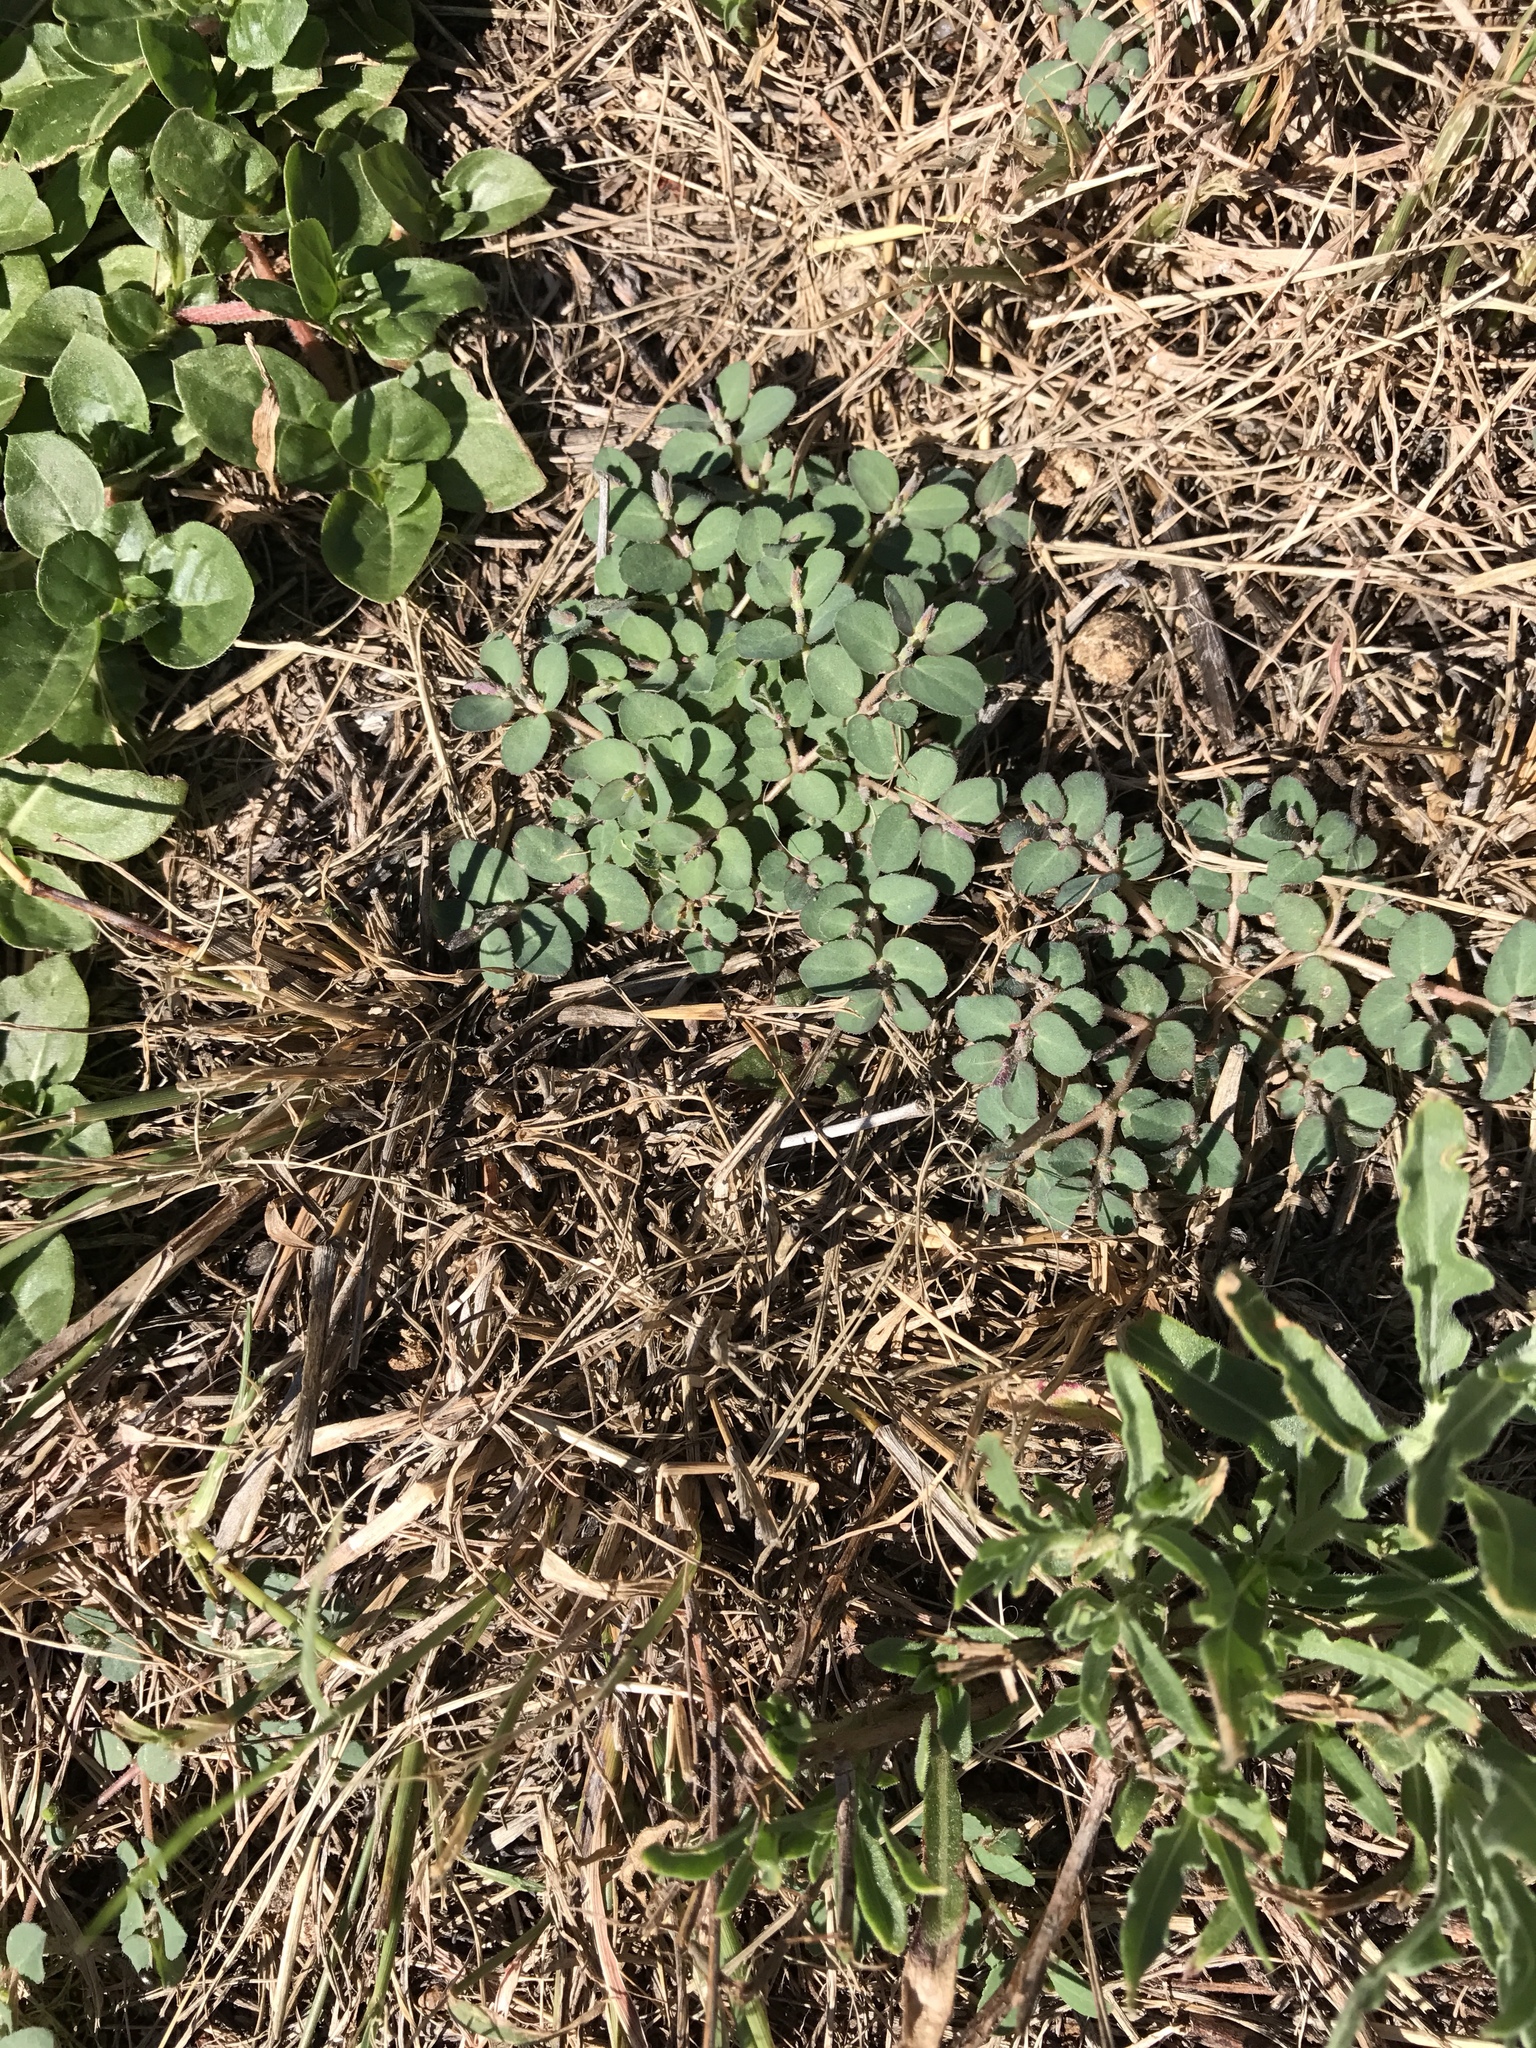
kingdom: Plantae
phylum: Tracheophyta
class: Magnoliopsida
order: Malpighiales
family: Euphorbiaceae
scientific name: Euphorbiaceae
